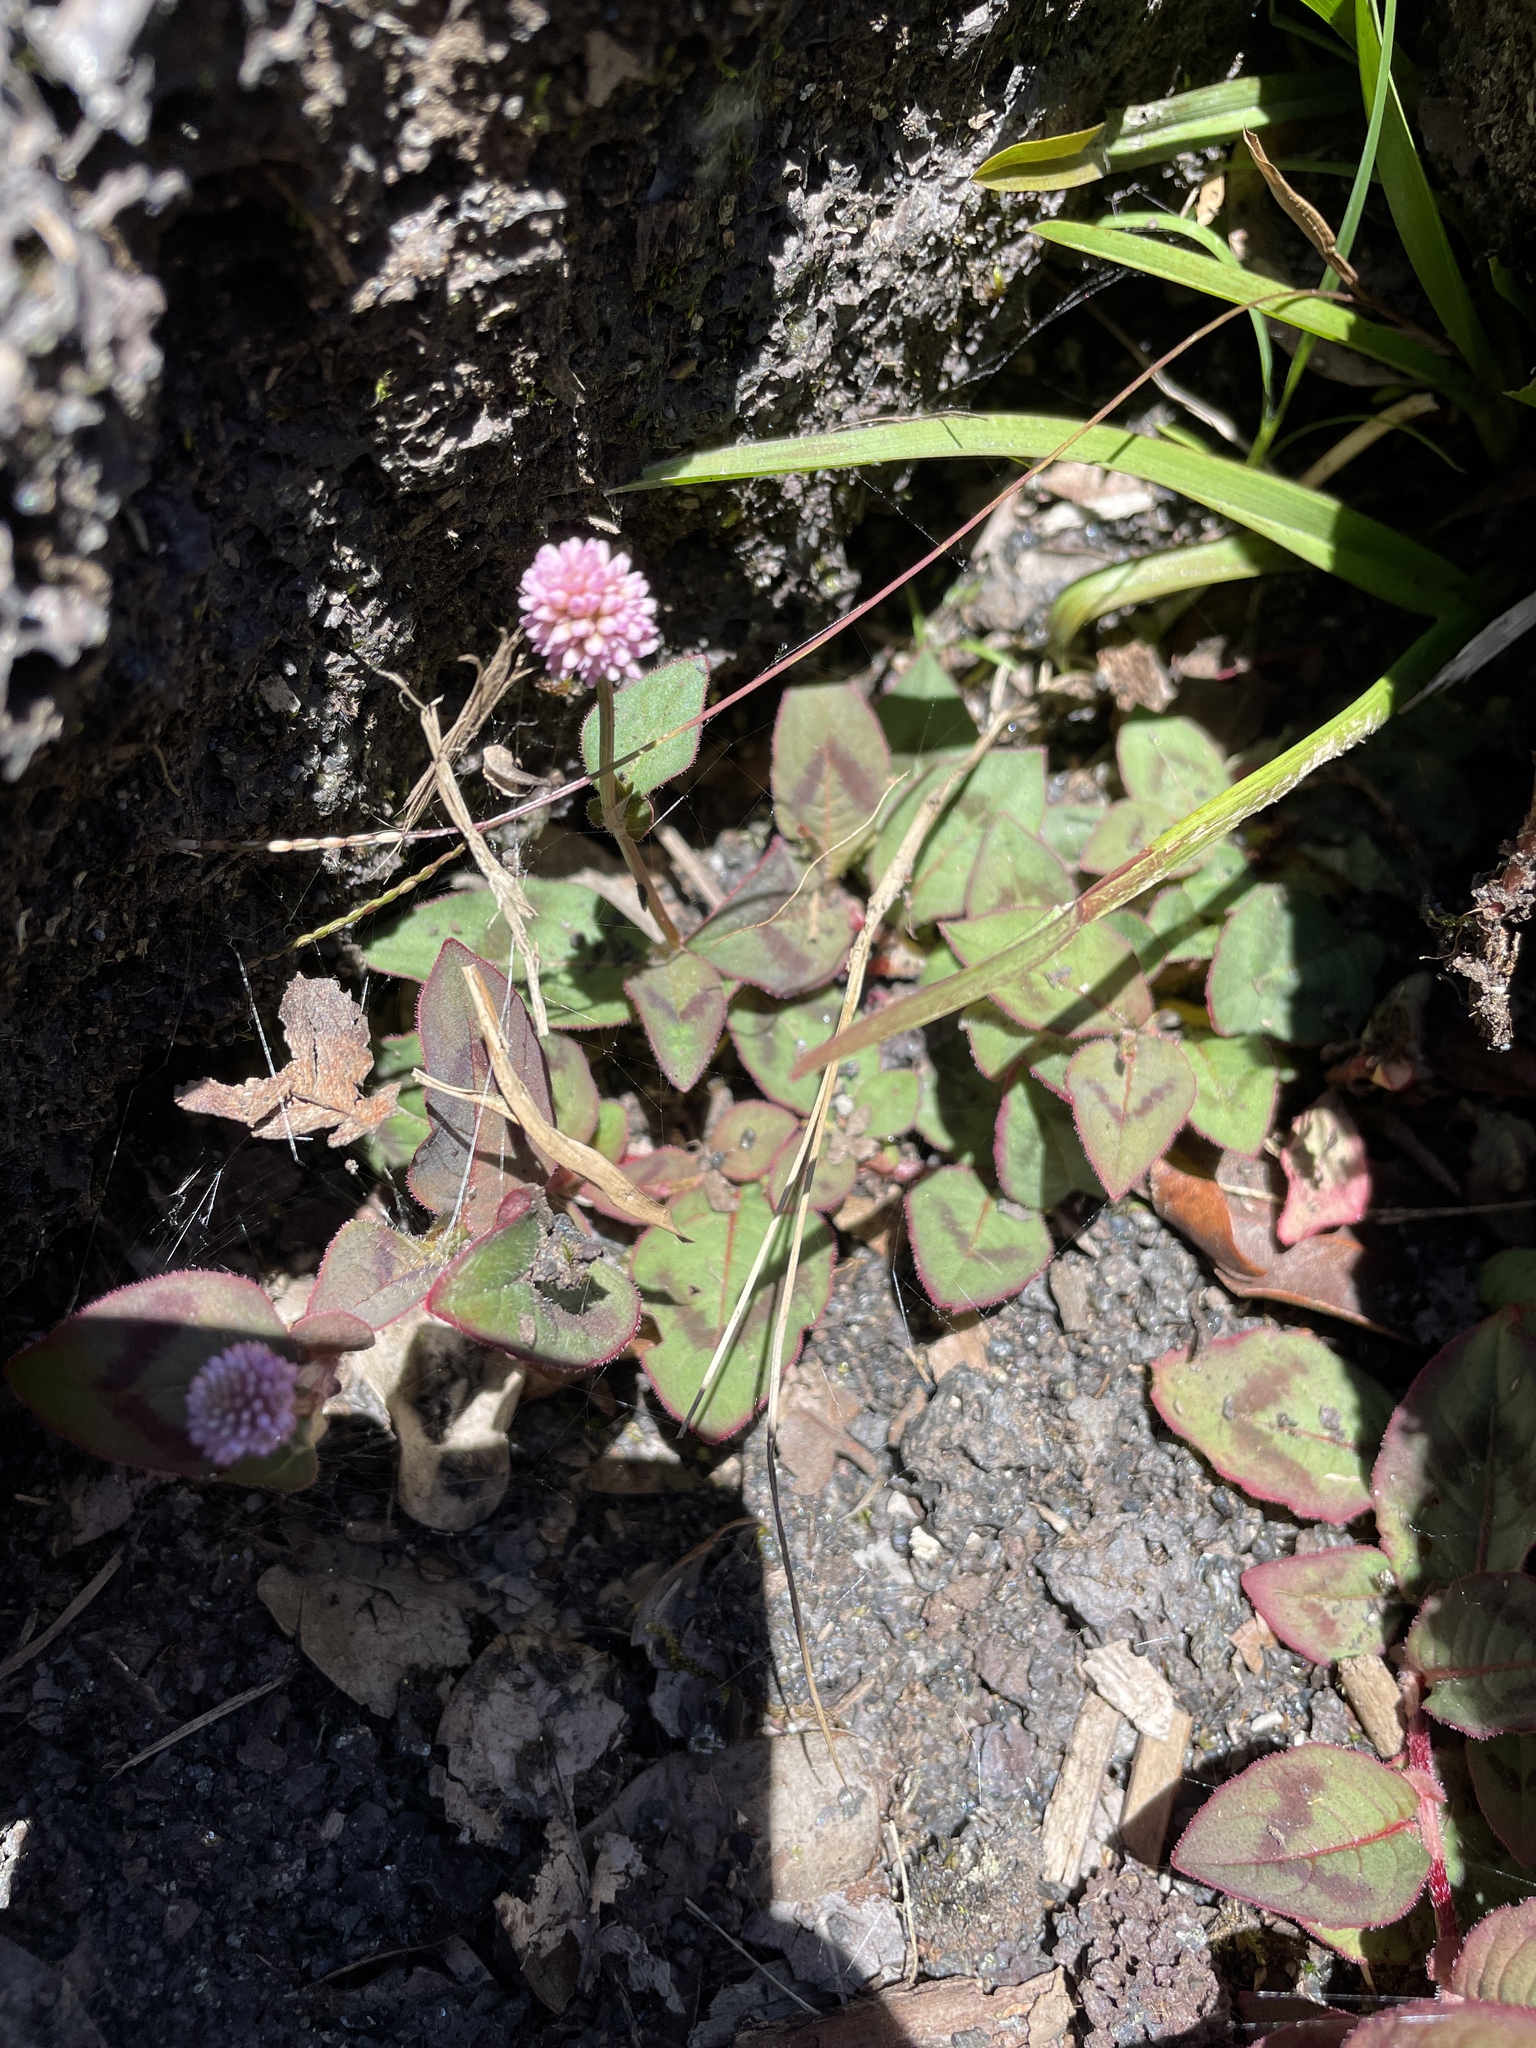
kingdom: Plantae
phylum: Tracheophyta
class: Magnoliopsida
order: Caryophyllales
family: Polygonaceae
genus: Persicaria
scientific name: Persicaria capitata
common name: Pinkhead smartweed
